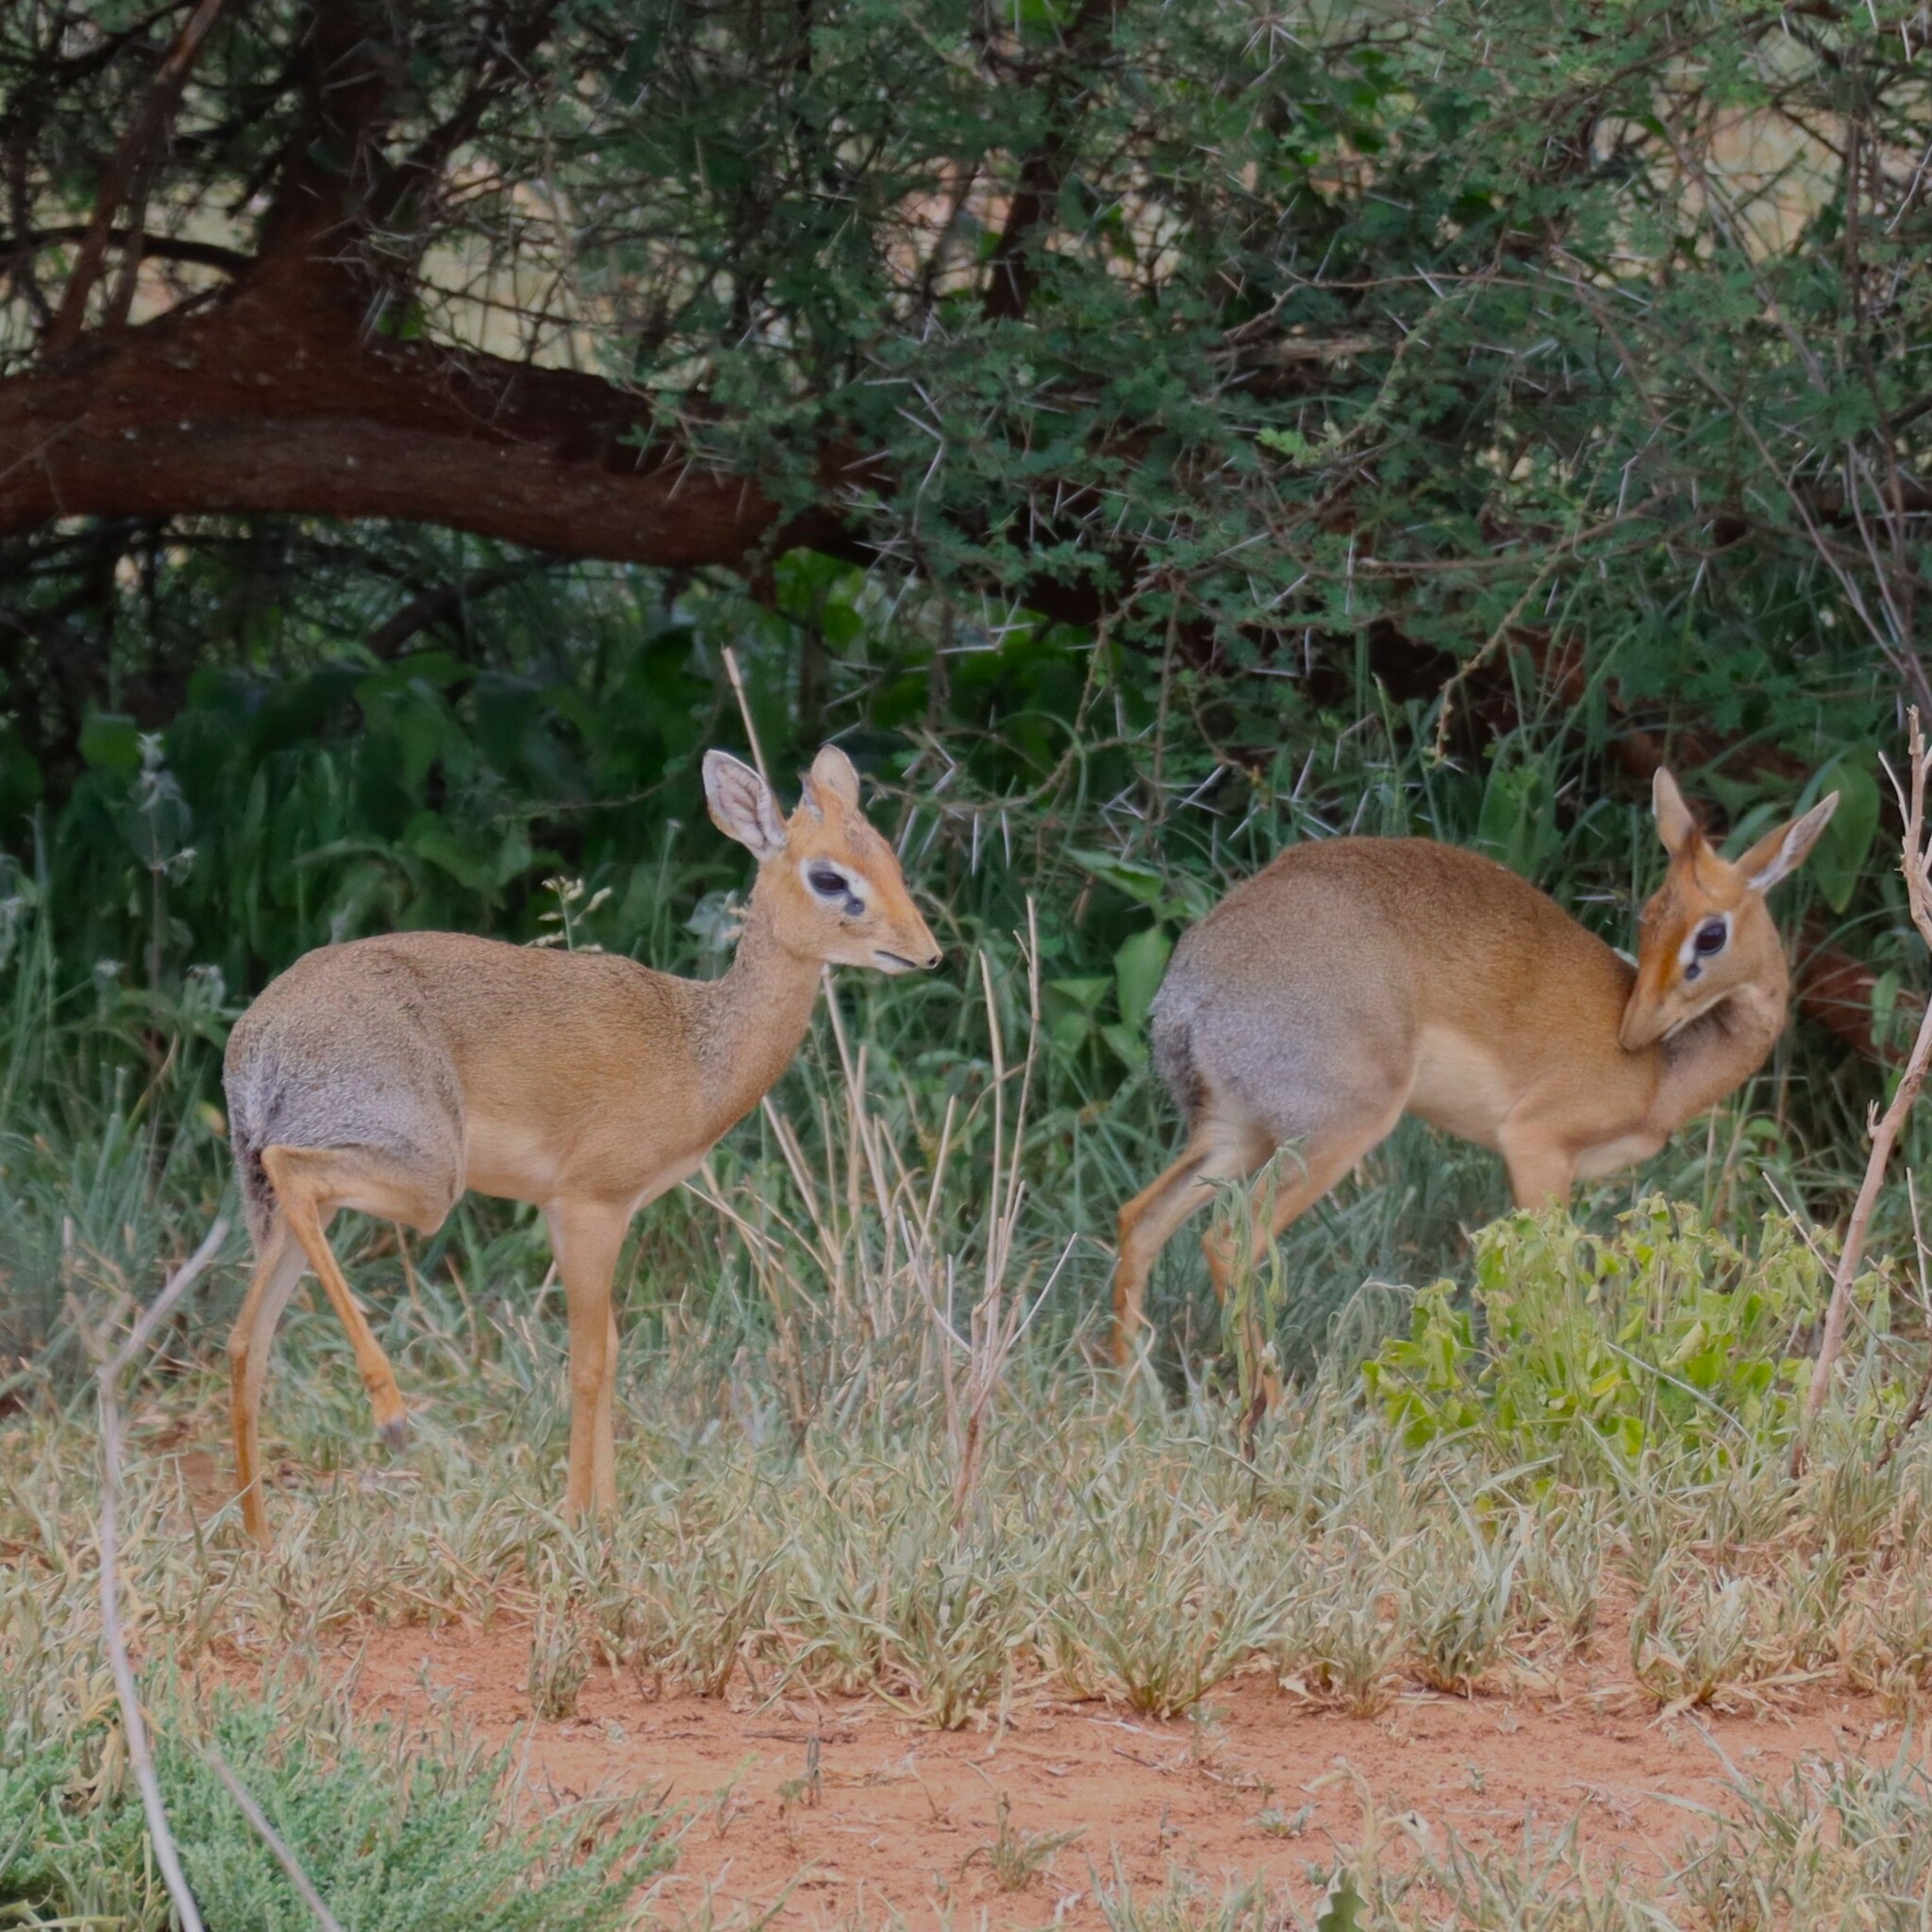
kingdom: Animalia
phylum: Chordata
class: Mammalia
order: Artiodactyla
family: Bovidae
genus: Madoqua
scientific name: Madoqua
